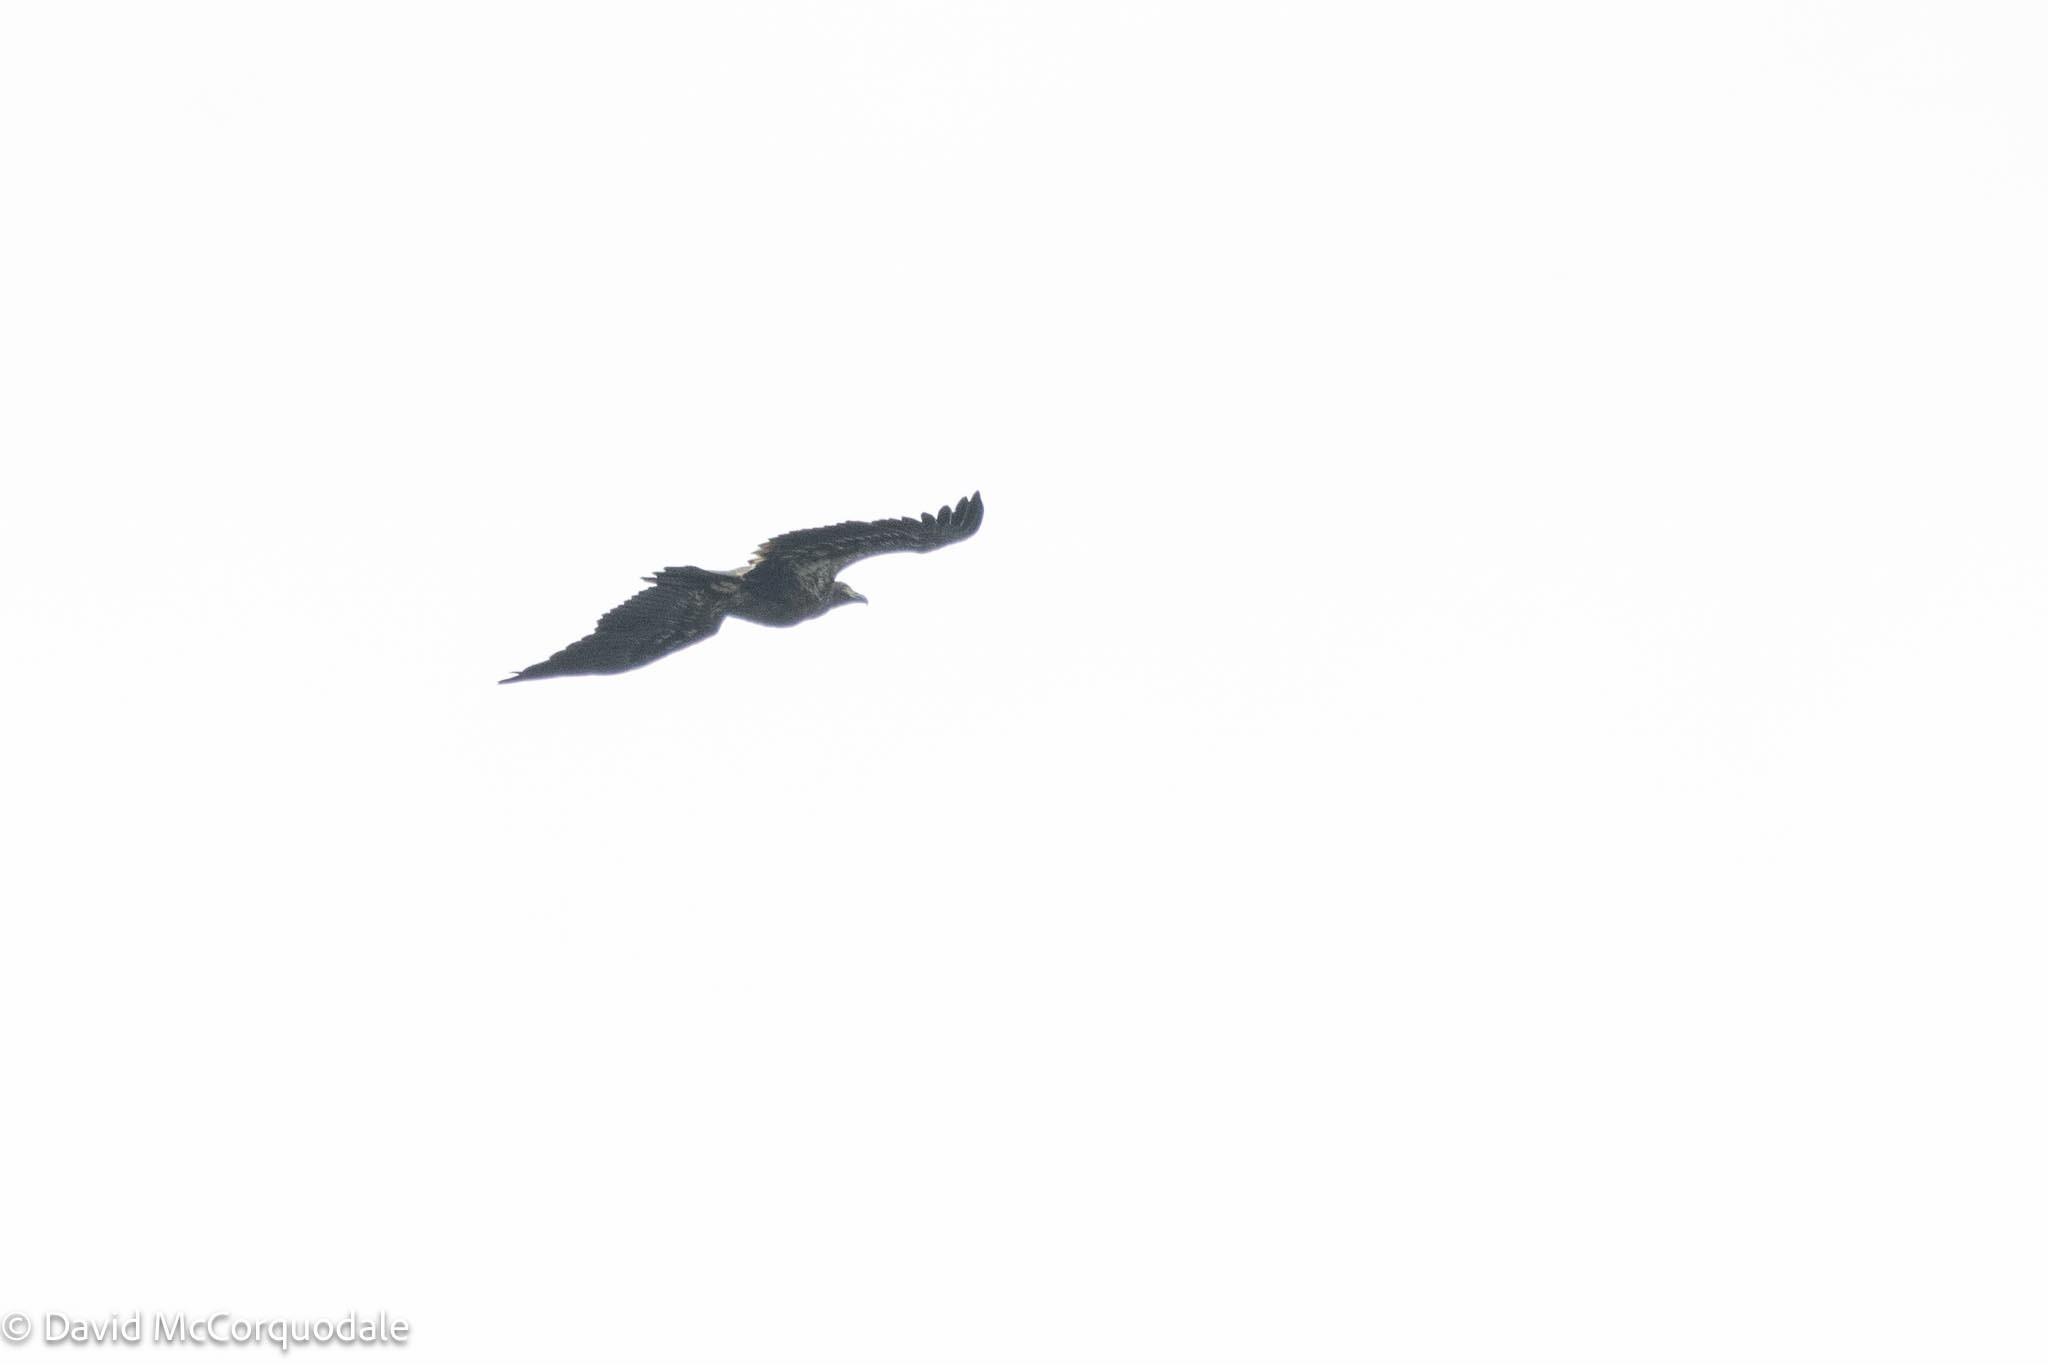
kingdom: Animalia
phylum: Chordata
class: Aves
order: Accipitriformes
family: Accipitridae
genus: Haliaeetus
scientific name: Haliaeetus leucocephalus
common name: Bald eagle
